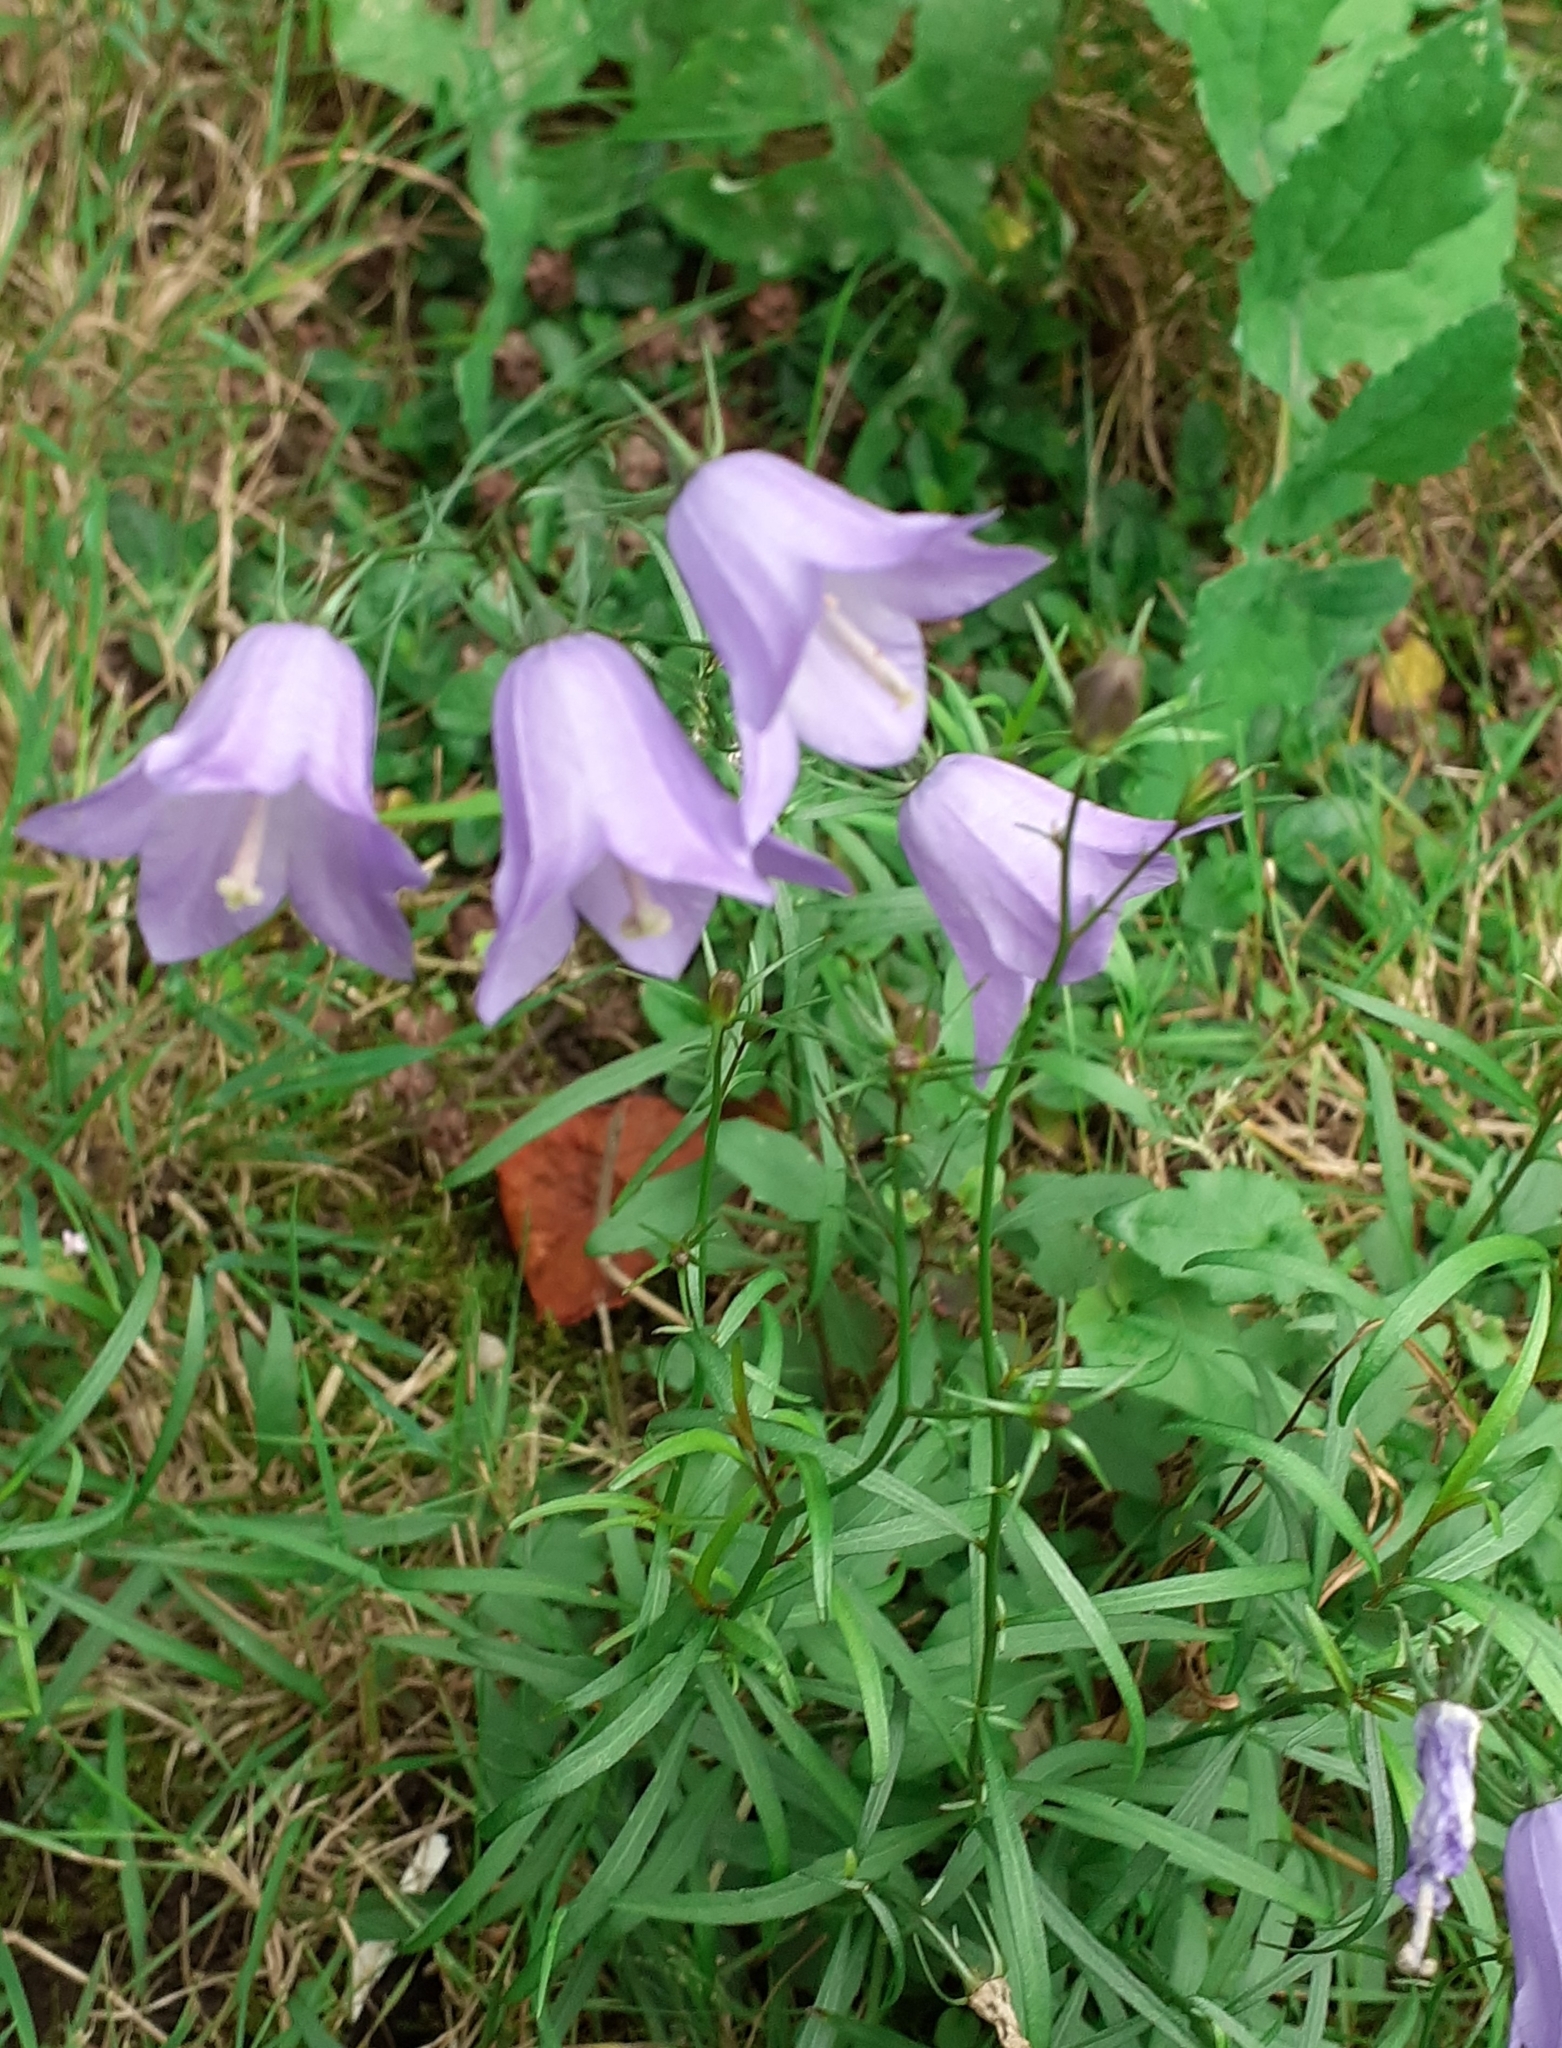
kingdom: Plantae
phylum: Tracheophyta
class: Magnoliopsida
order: Asterales
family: Campanulaceae
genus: Campanula
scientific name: Campanula rotundifolia
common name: Harebell
